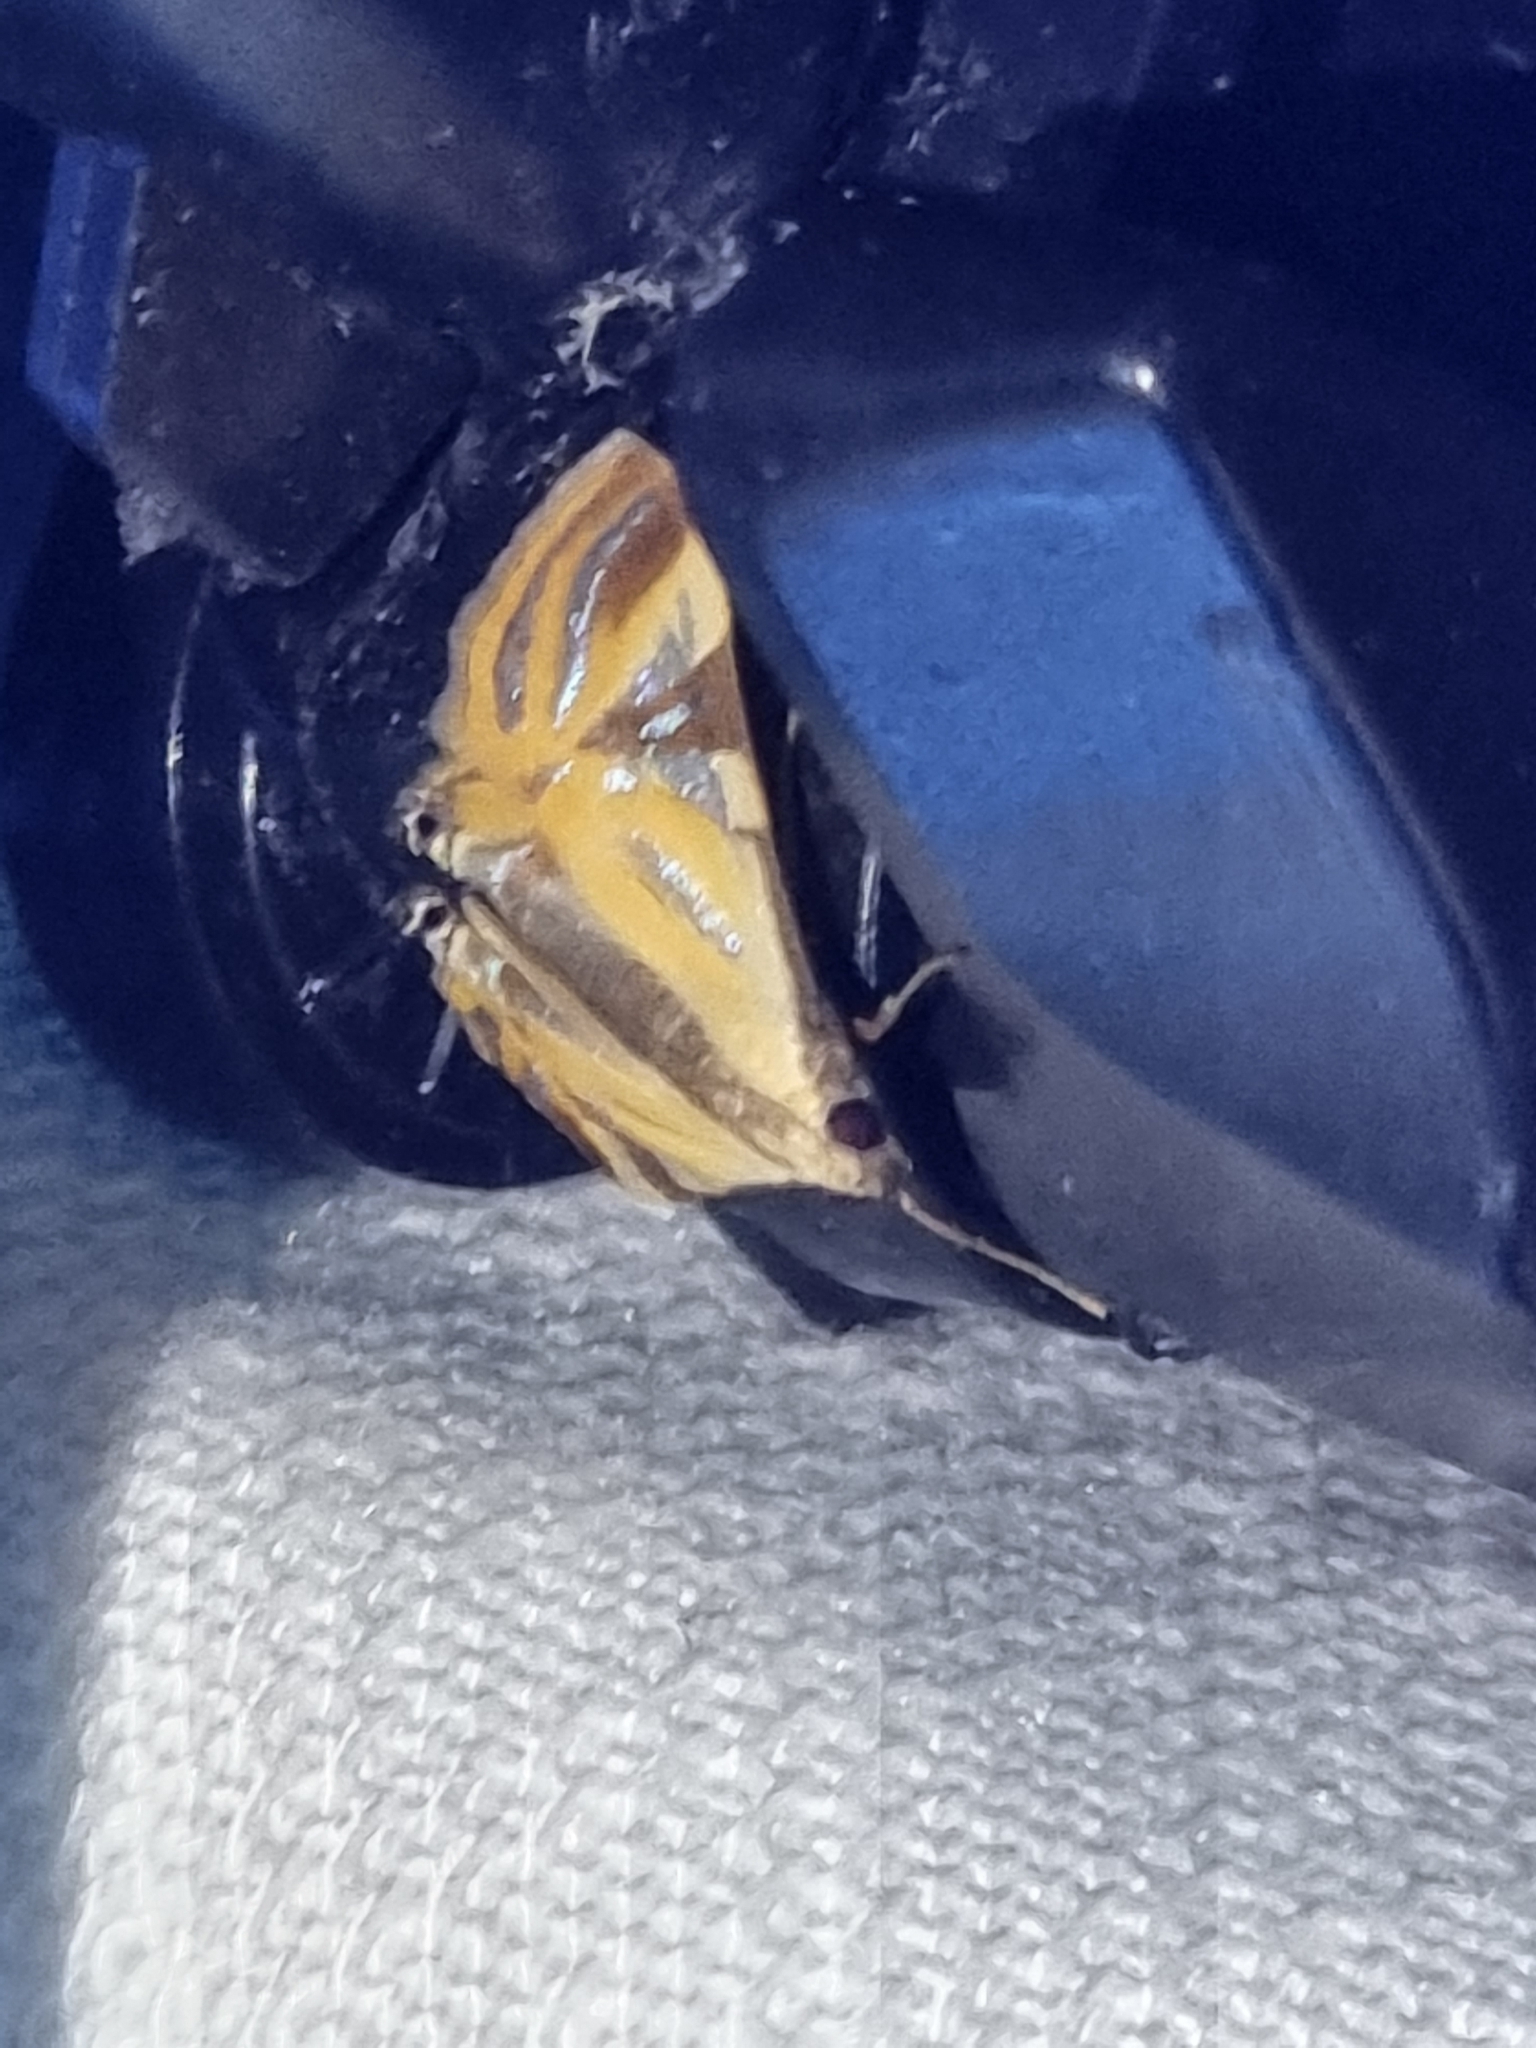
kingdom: Animalia
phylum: Arthropoda
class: Insecta
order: Lepidoptera
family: Crambidae
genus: Talanga
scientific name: Talanga tolumnialis
